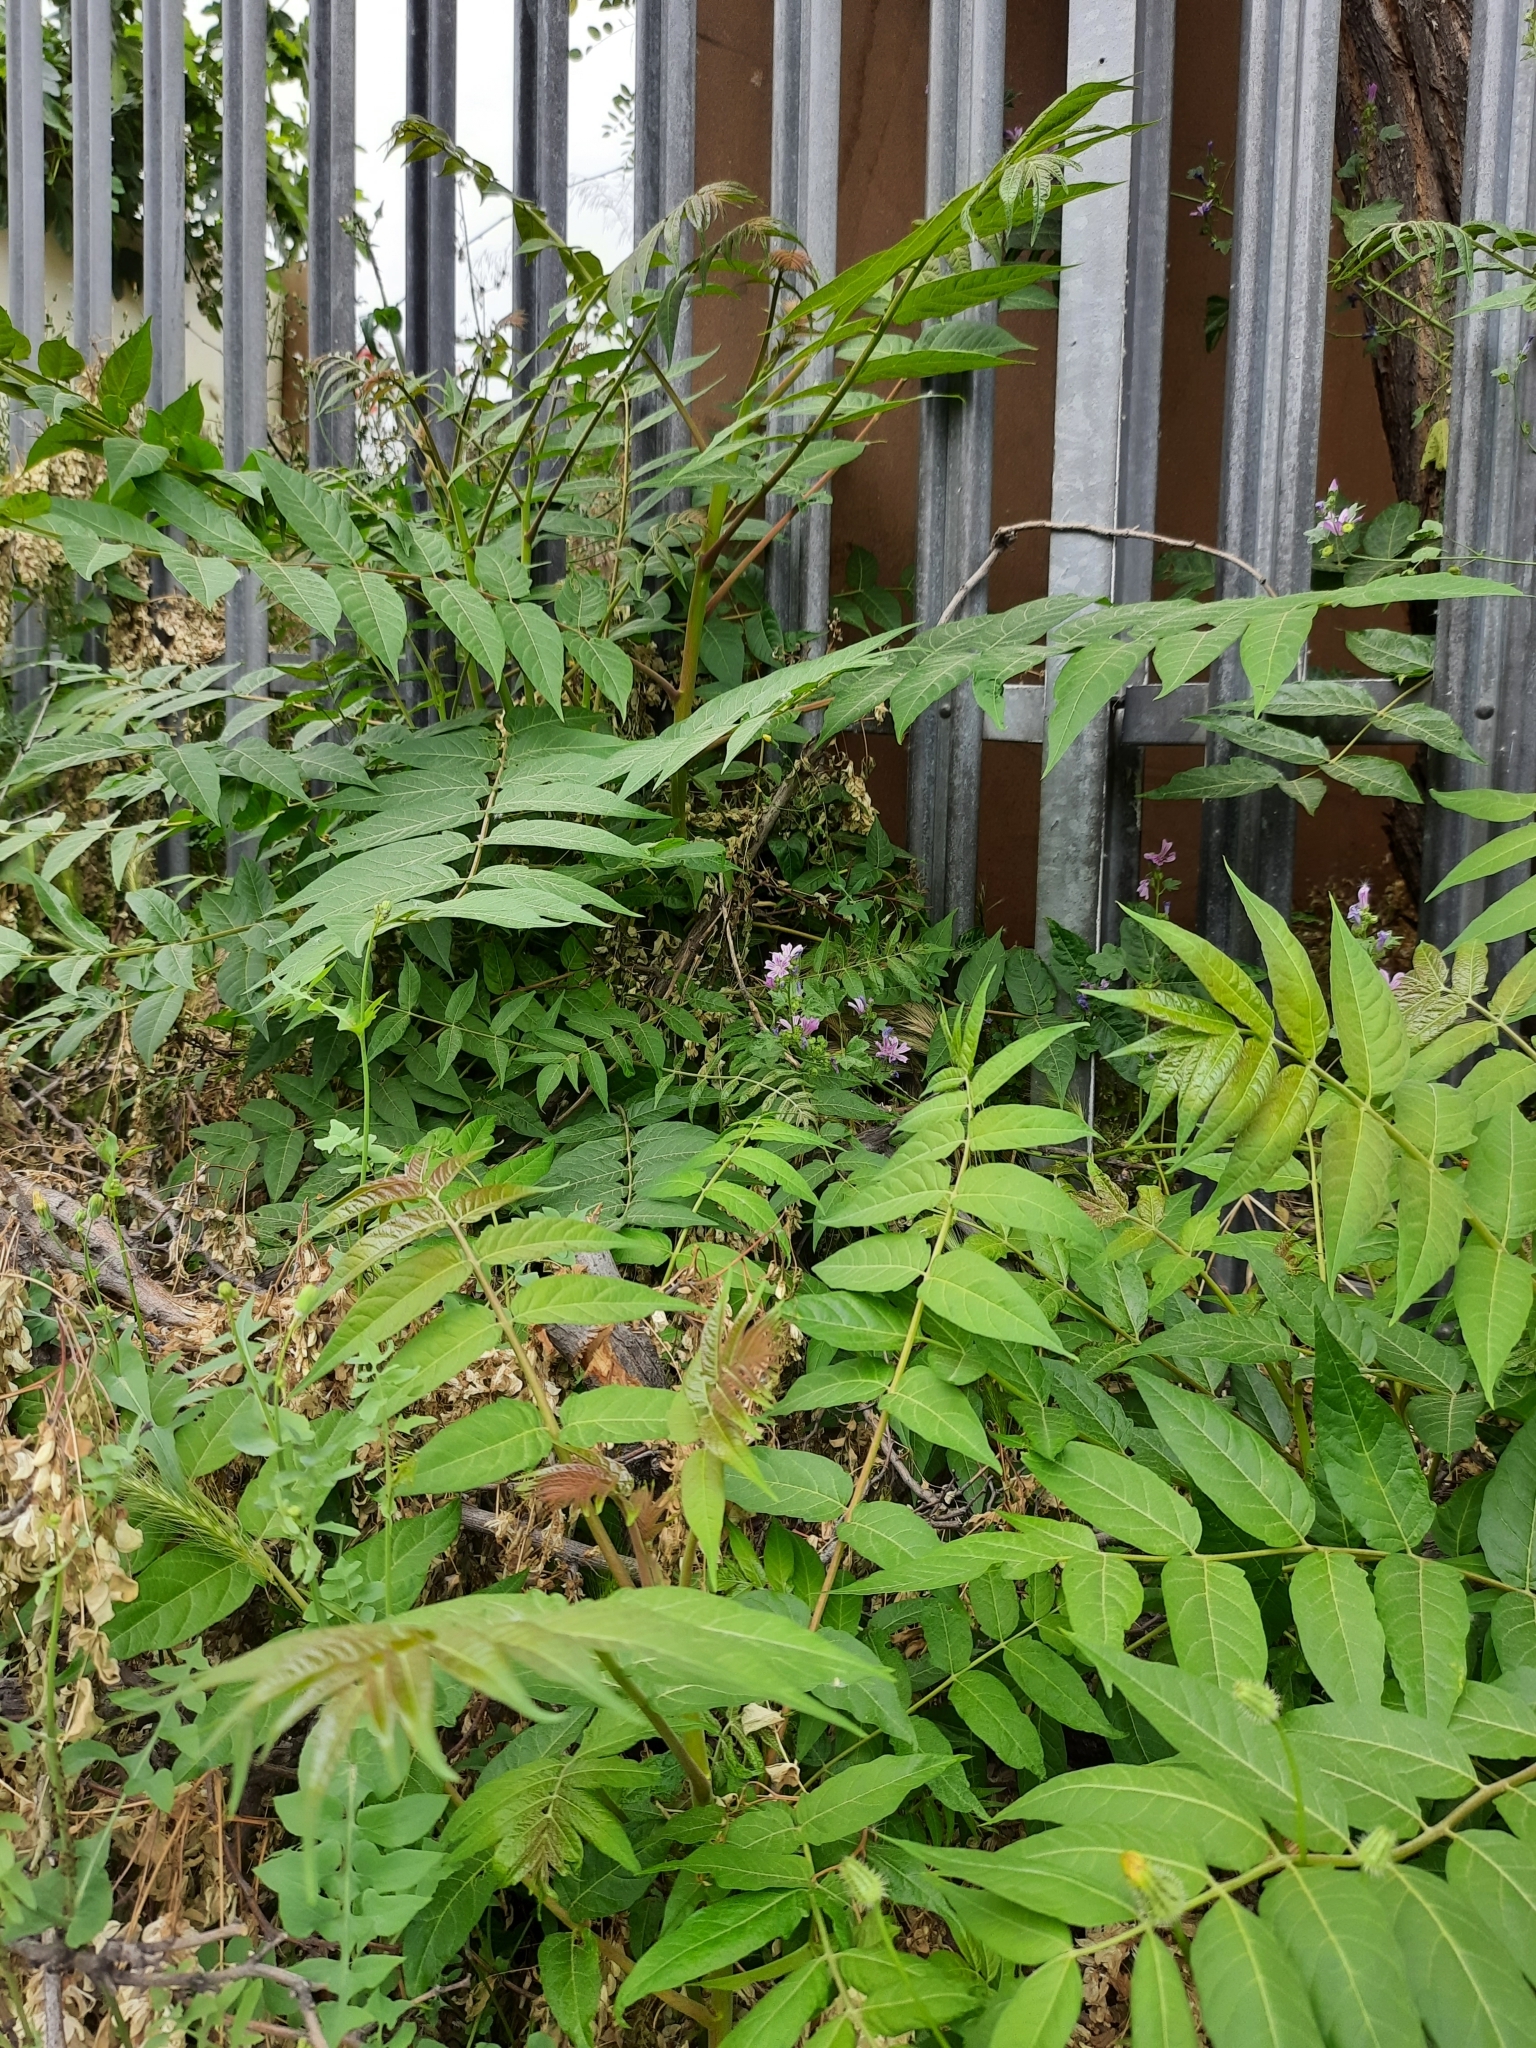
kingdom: Plantae
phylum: Tracheophyta
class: Magnoliopsida
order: Sapindales
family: Simaroubaceae
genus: Ailanthus
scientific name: Ailanthus altissima
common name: Tree-of-heaven
